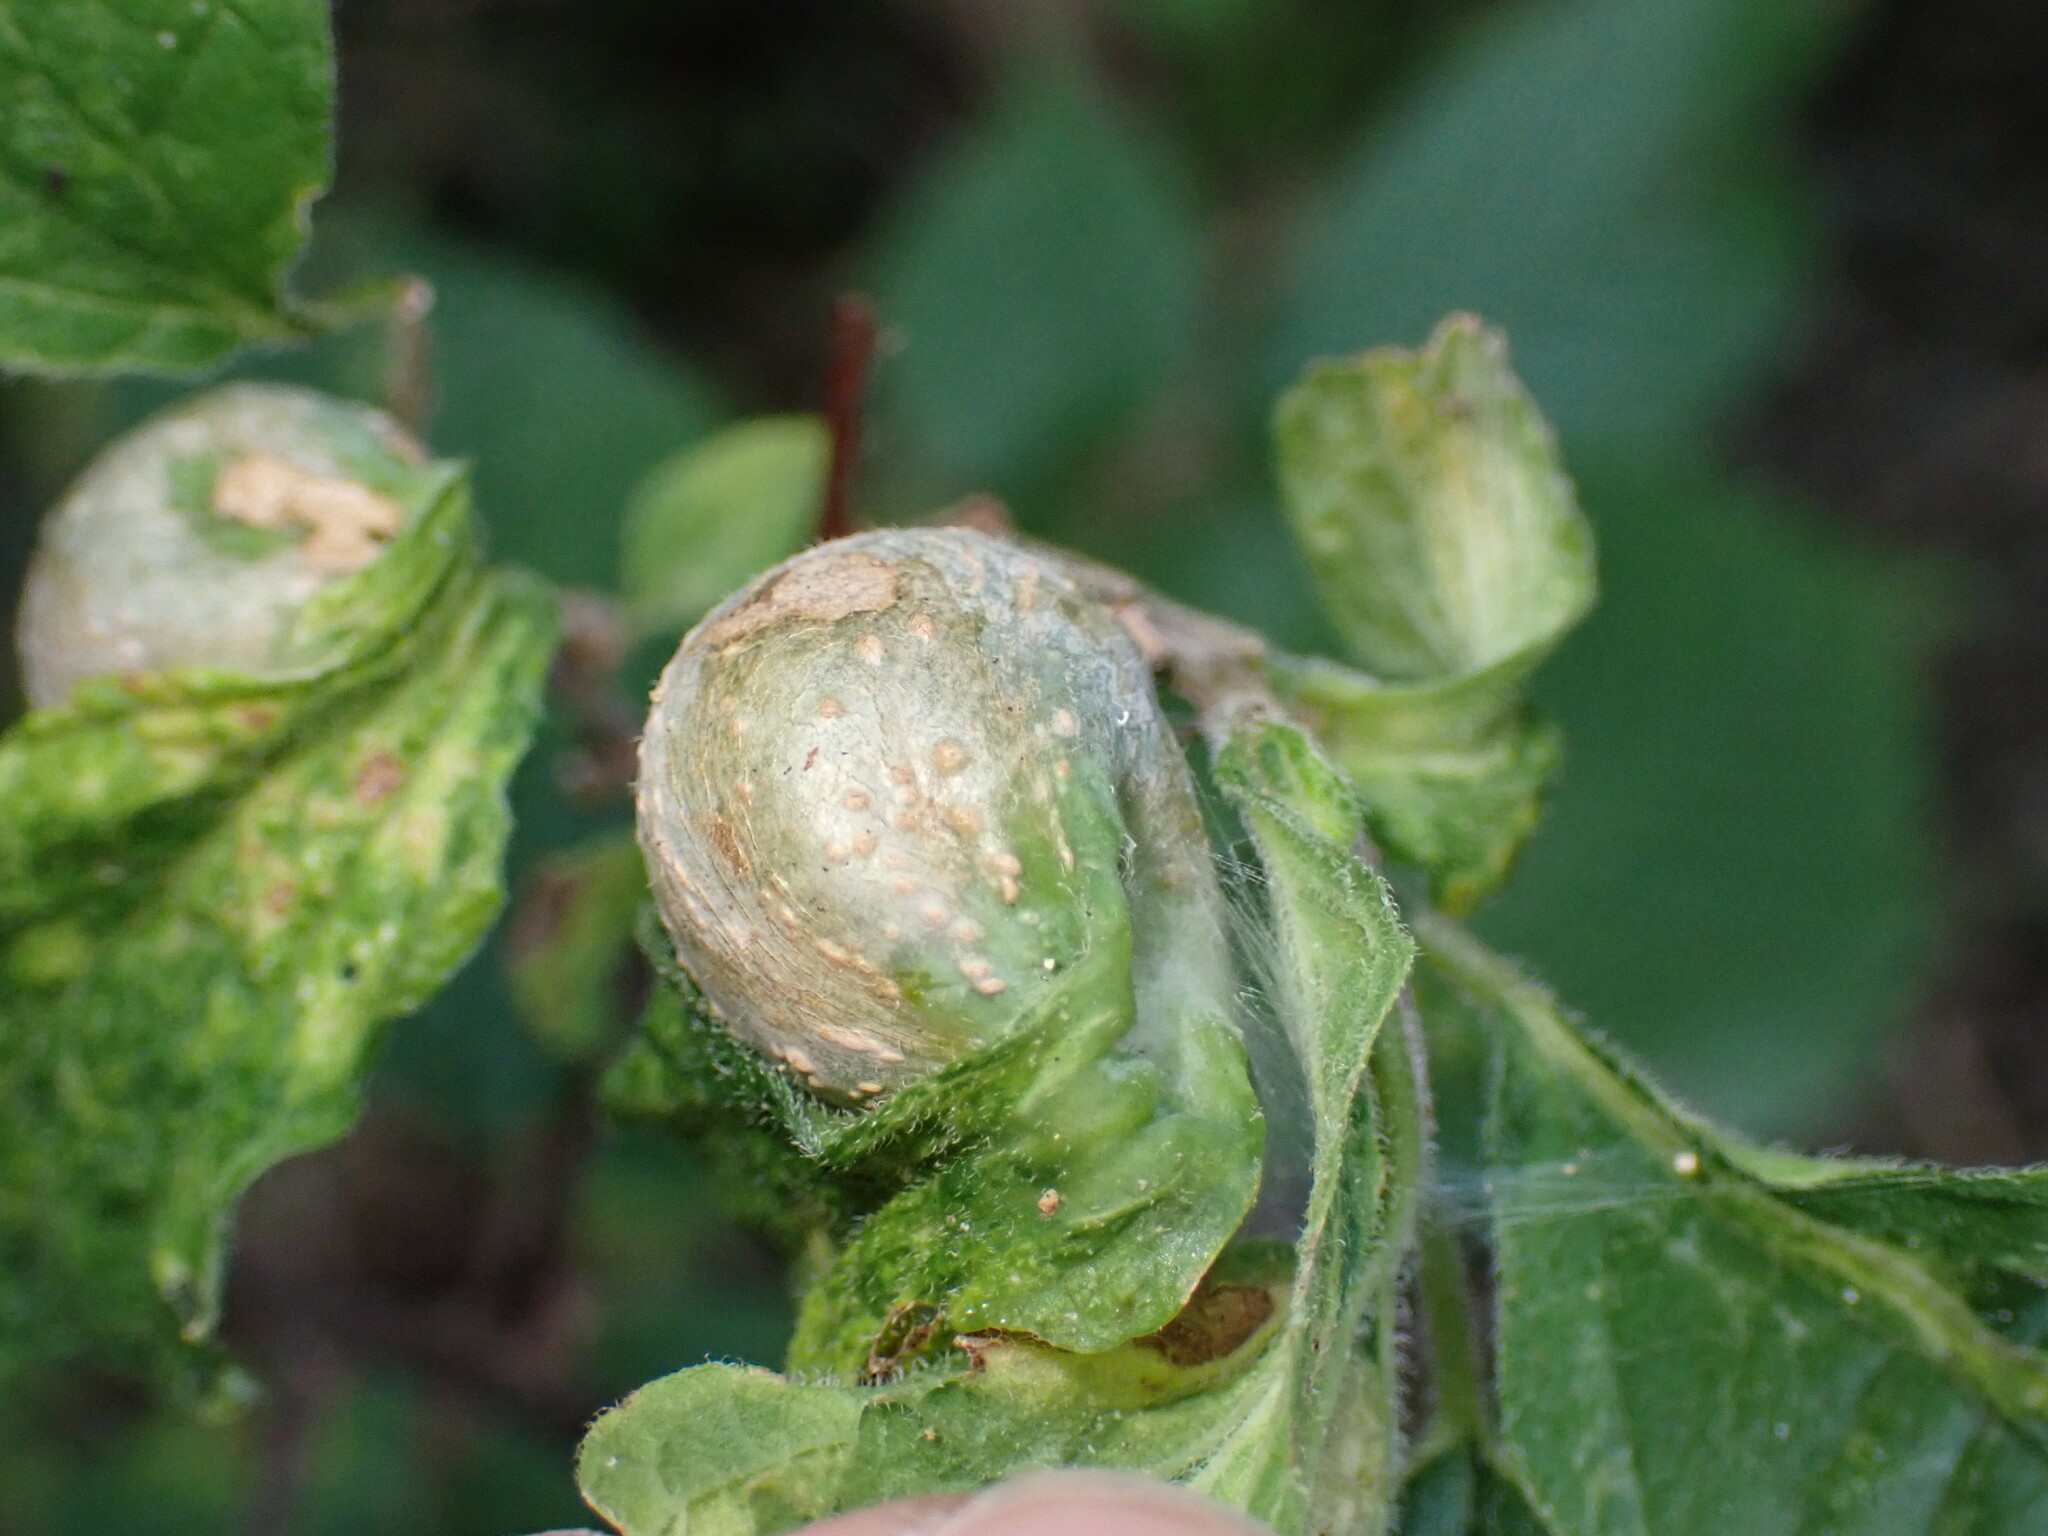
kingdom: Animalia
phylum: Arthropoda
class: Insecta
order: Hemiptera
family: Aphalaridae
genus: Pachypsylla
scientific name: Pachypsylla venusta
